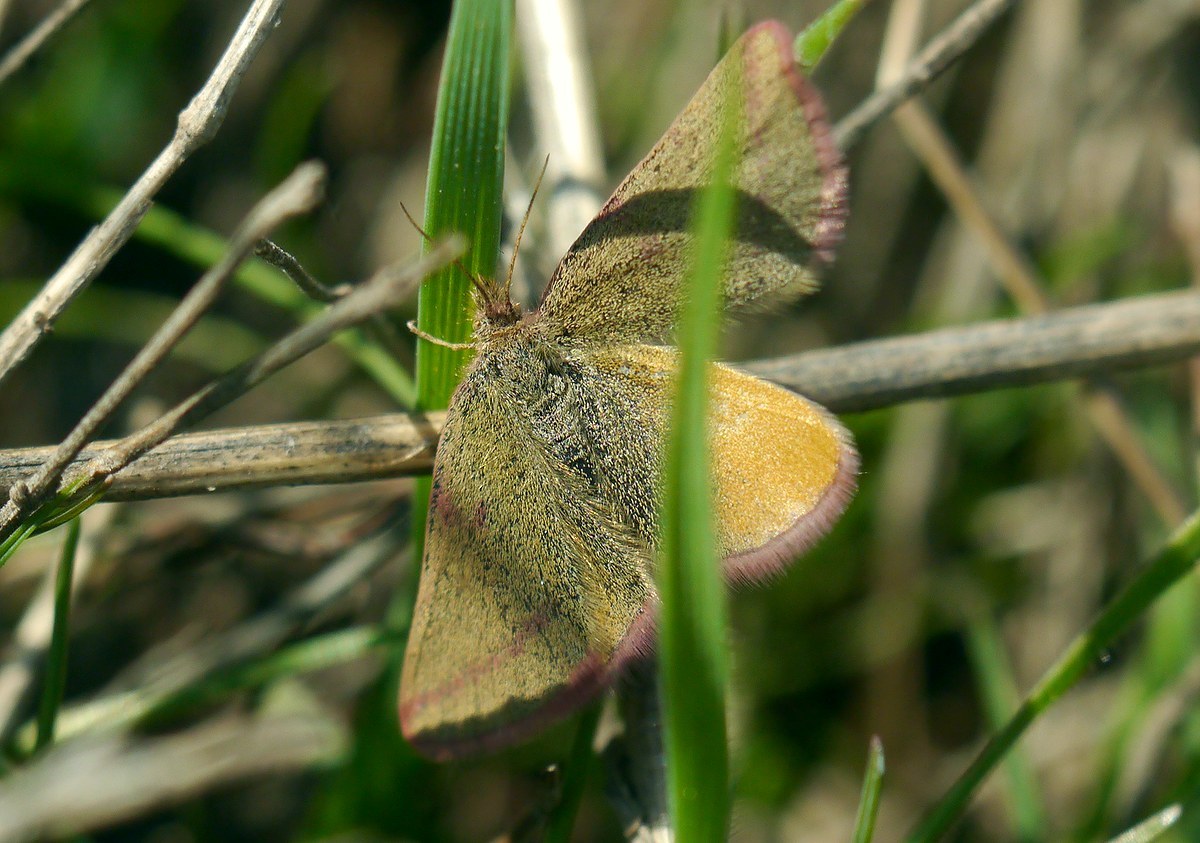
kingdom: Animalia
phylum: Arthropoda
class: Insecta
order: Lepidoptera
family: Geometridae
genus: Lythria
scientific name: Lythria purpuraria
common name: Purple-barred yellow
